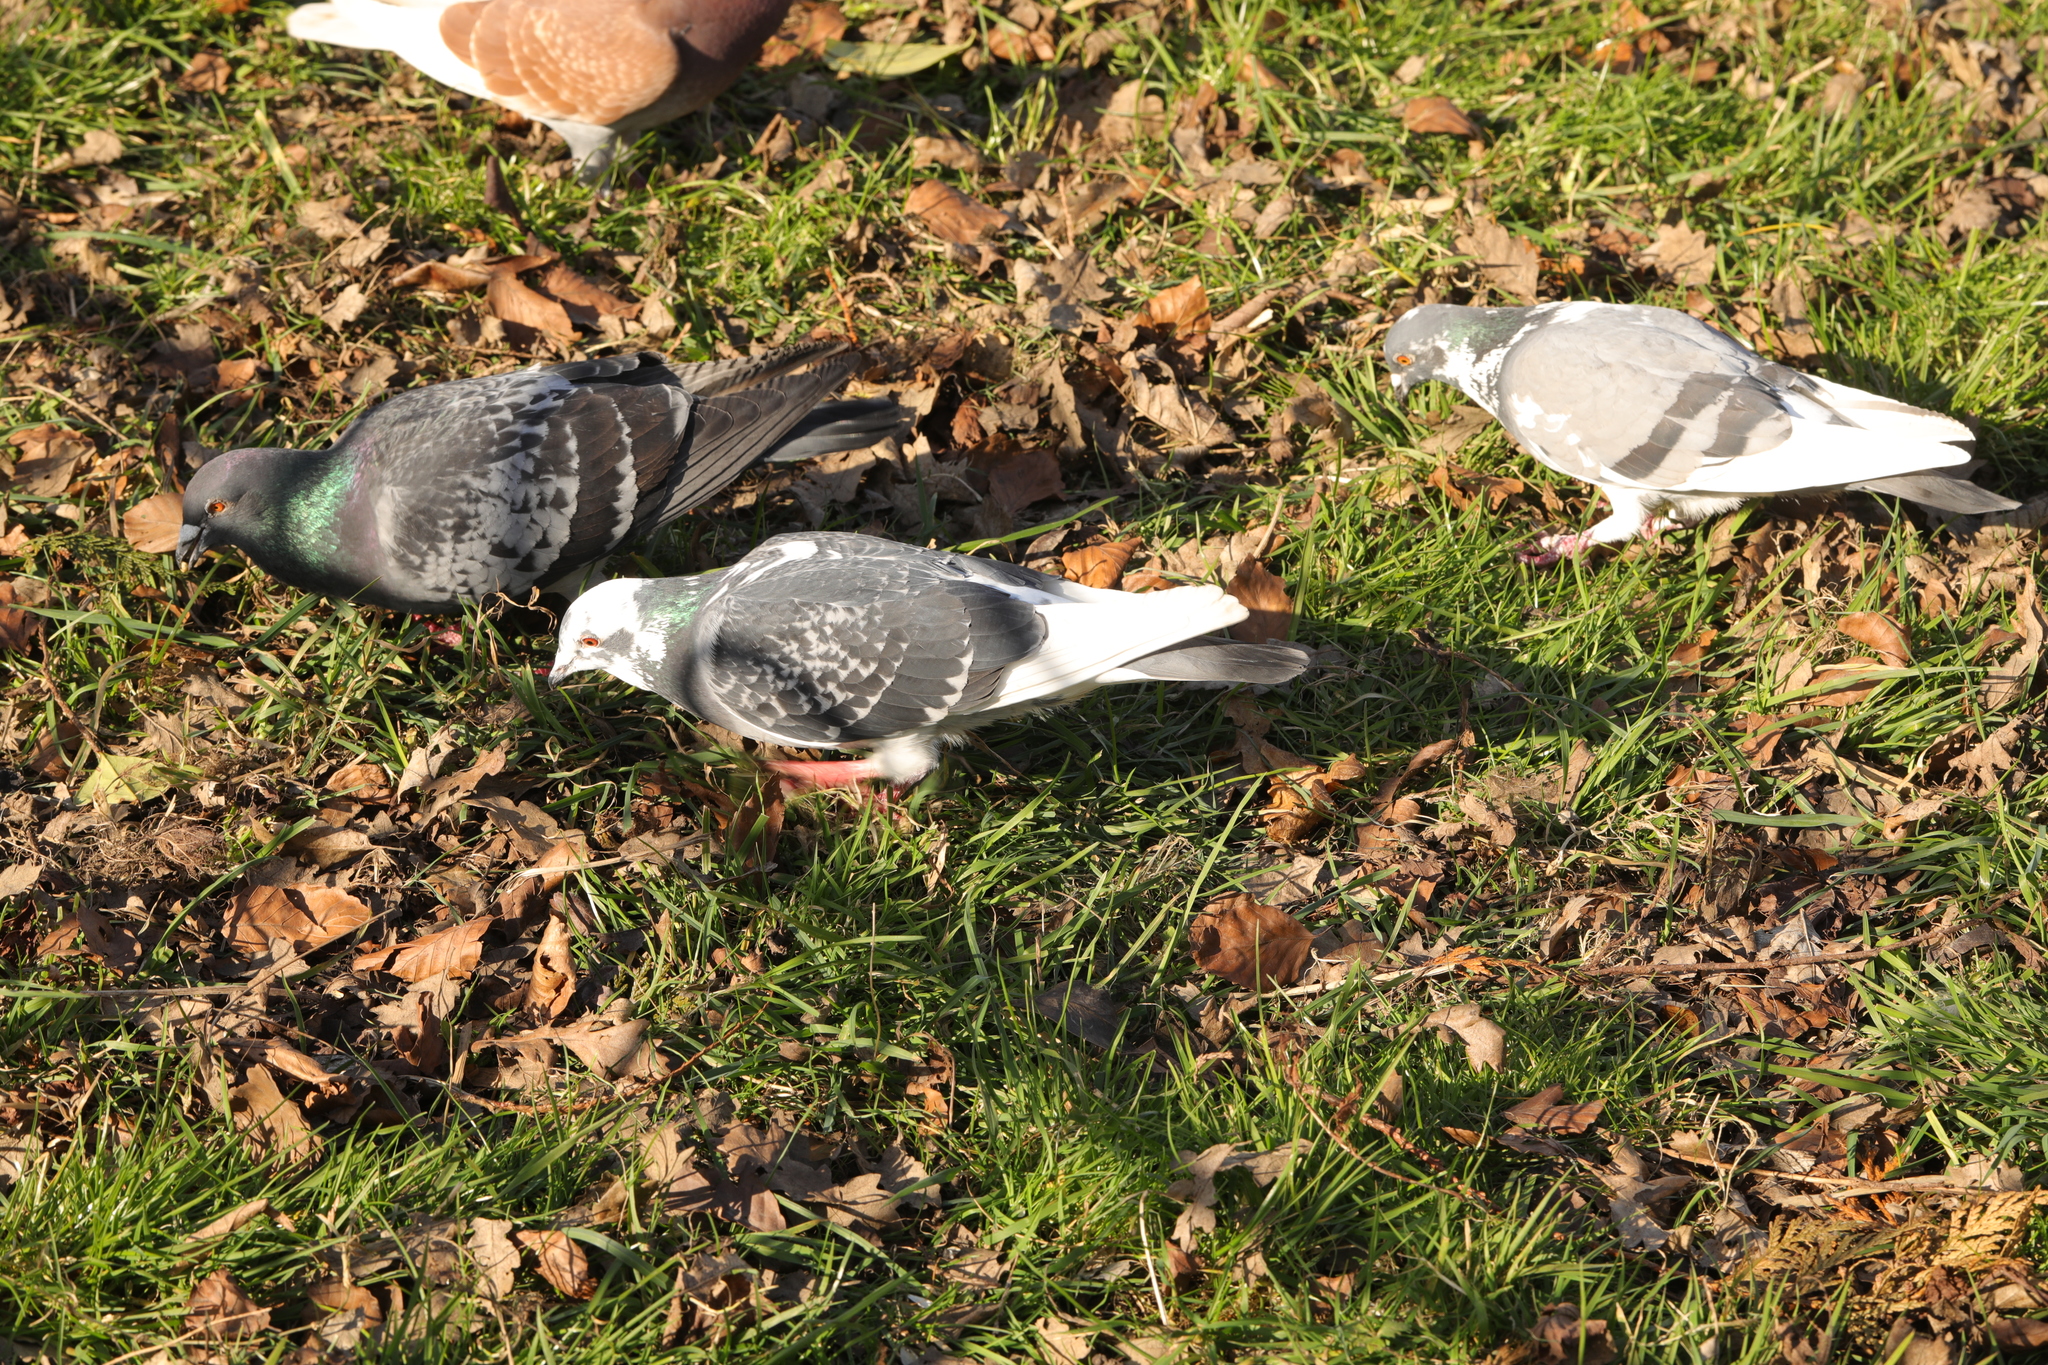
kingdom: Animalia
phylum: Chordata
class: Aves
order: Columbiformes
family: Columbidae
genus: Columba
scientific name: Columba livia
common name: Rock pigeon
